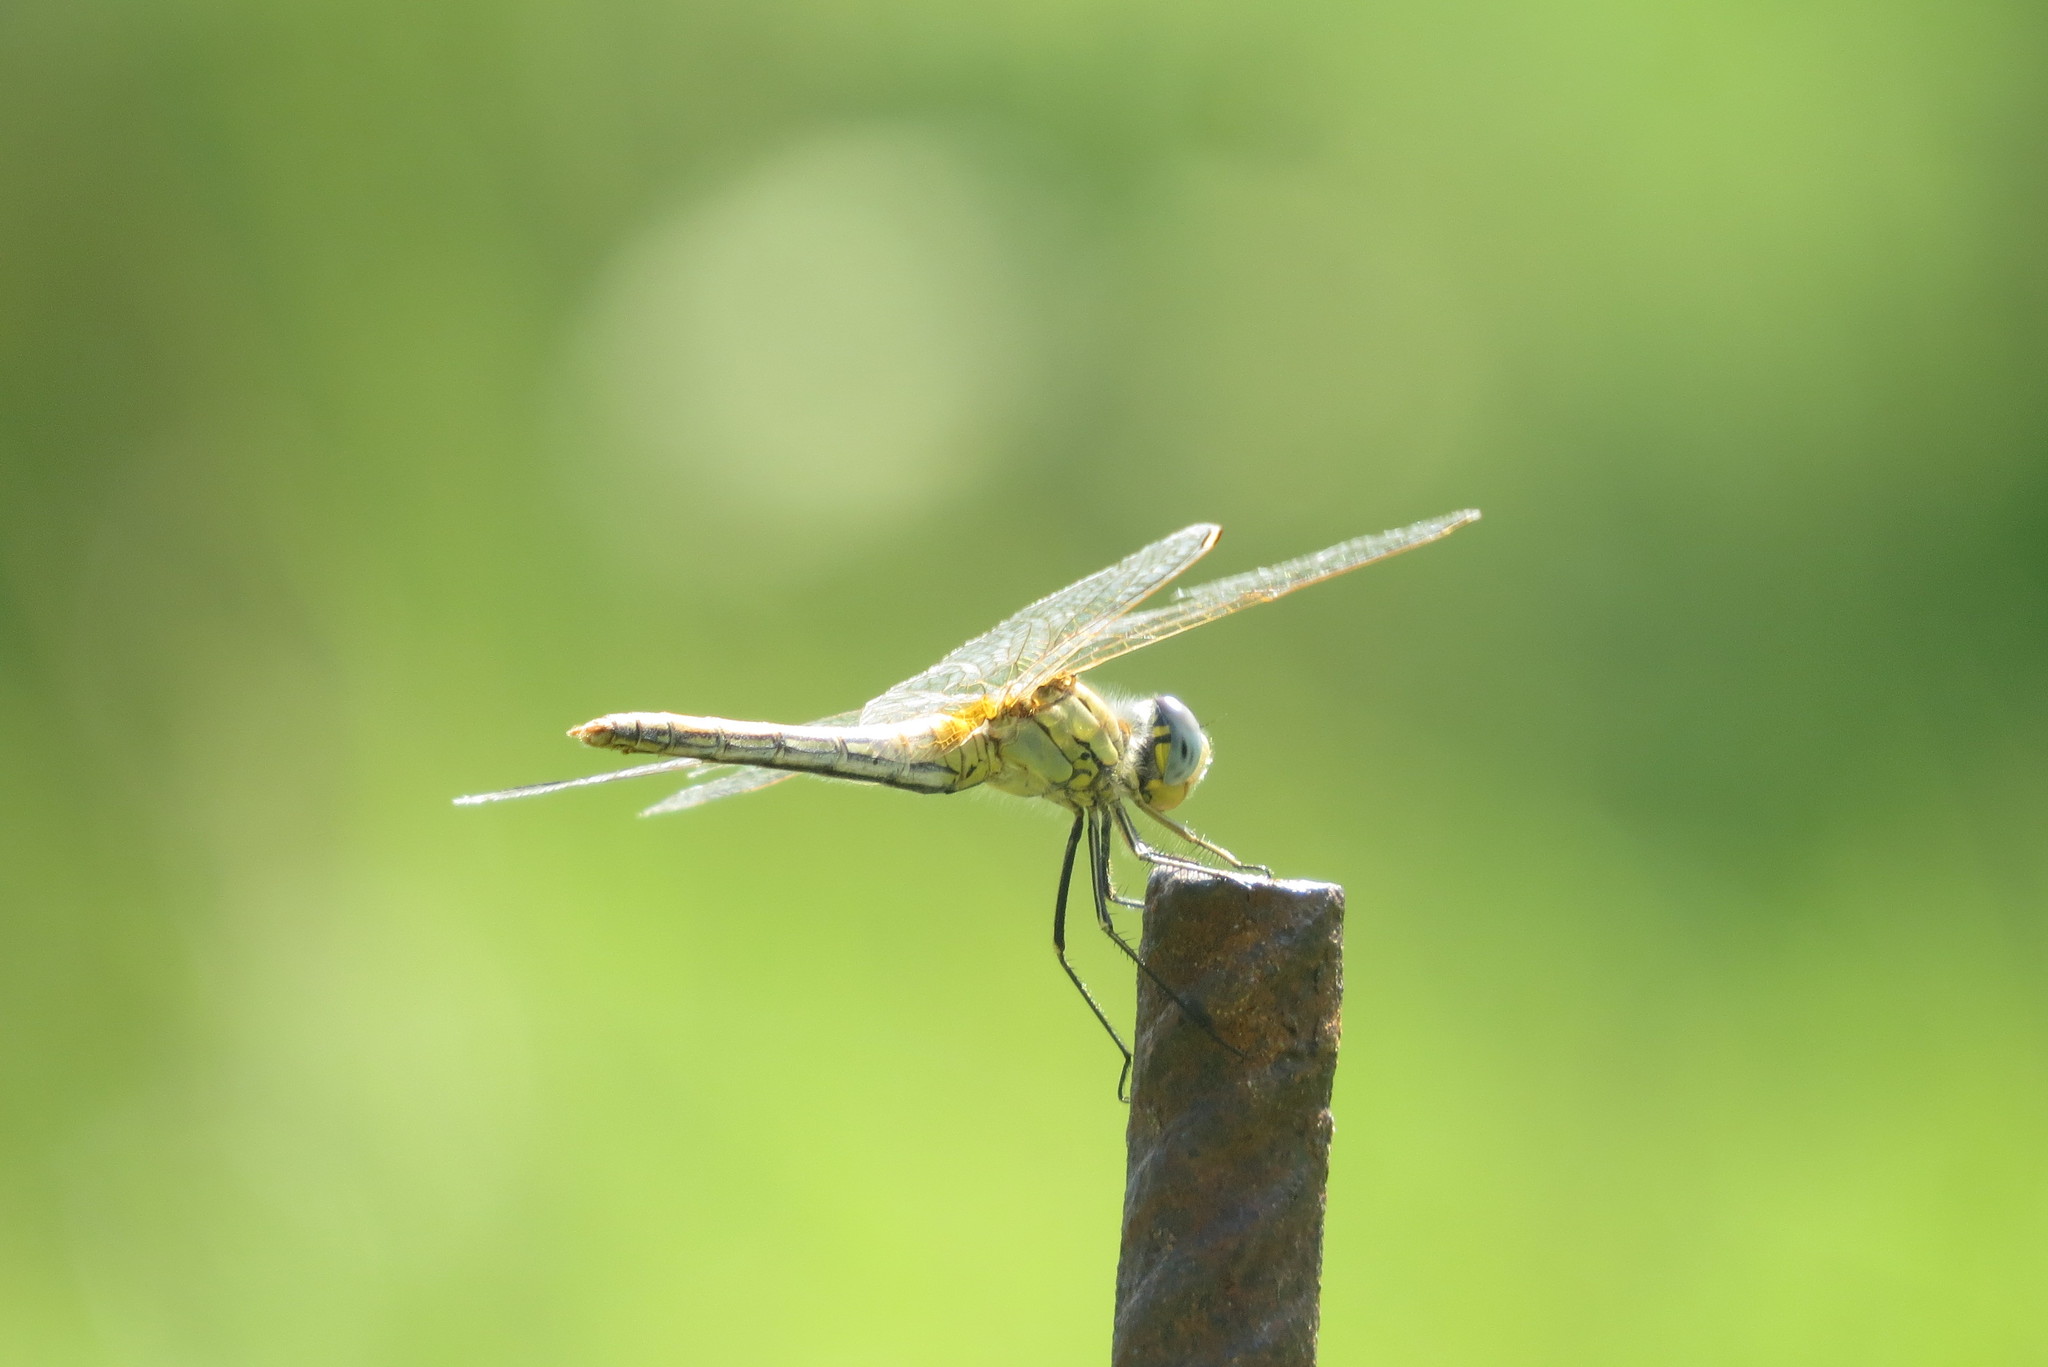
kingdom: Animalia
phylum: Arthropoda
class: Insecta
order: Odonata
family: Libellulidae
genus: Sympetrum
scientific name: Sympetrum fonscolombii
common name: Red-veined darter
